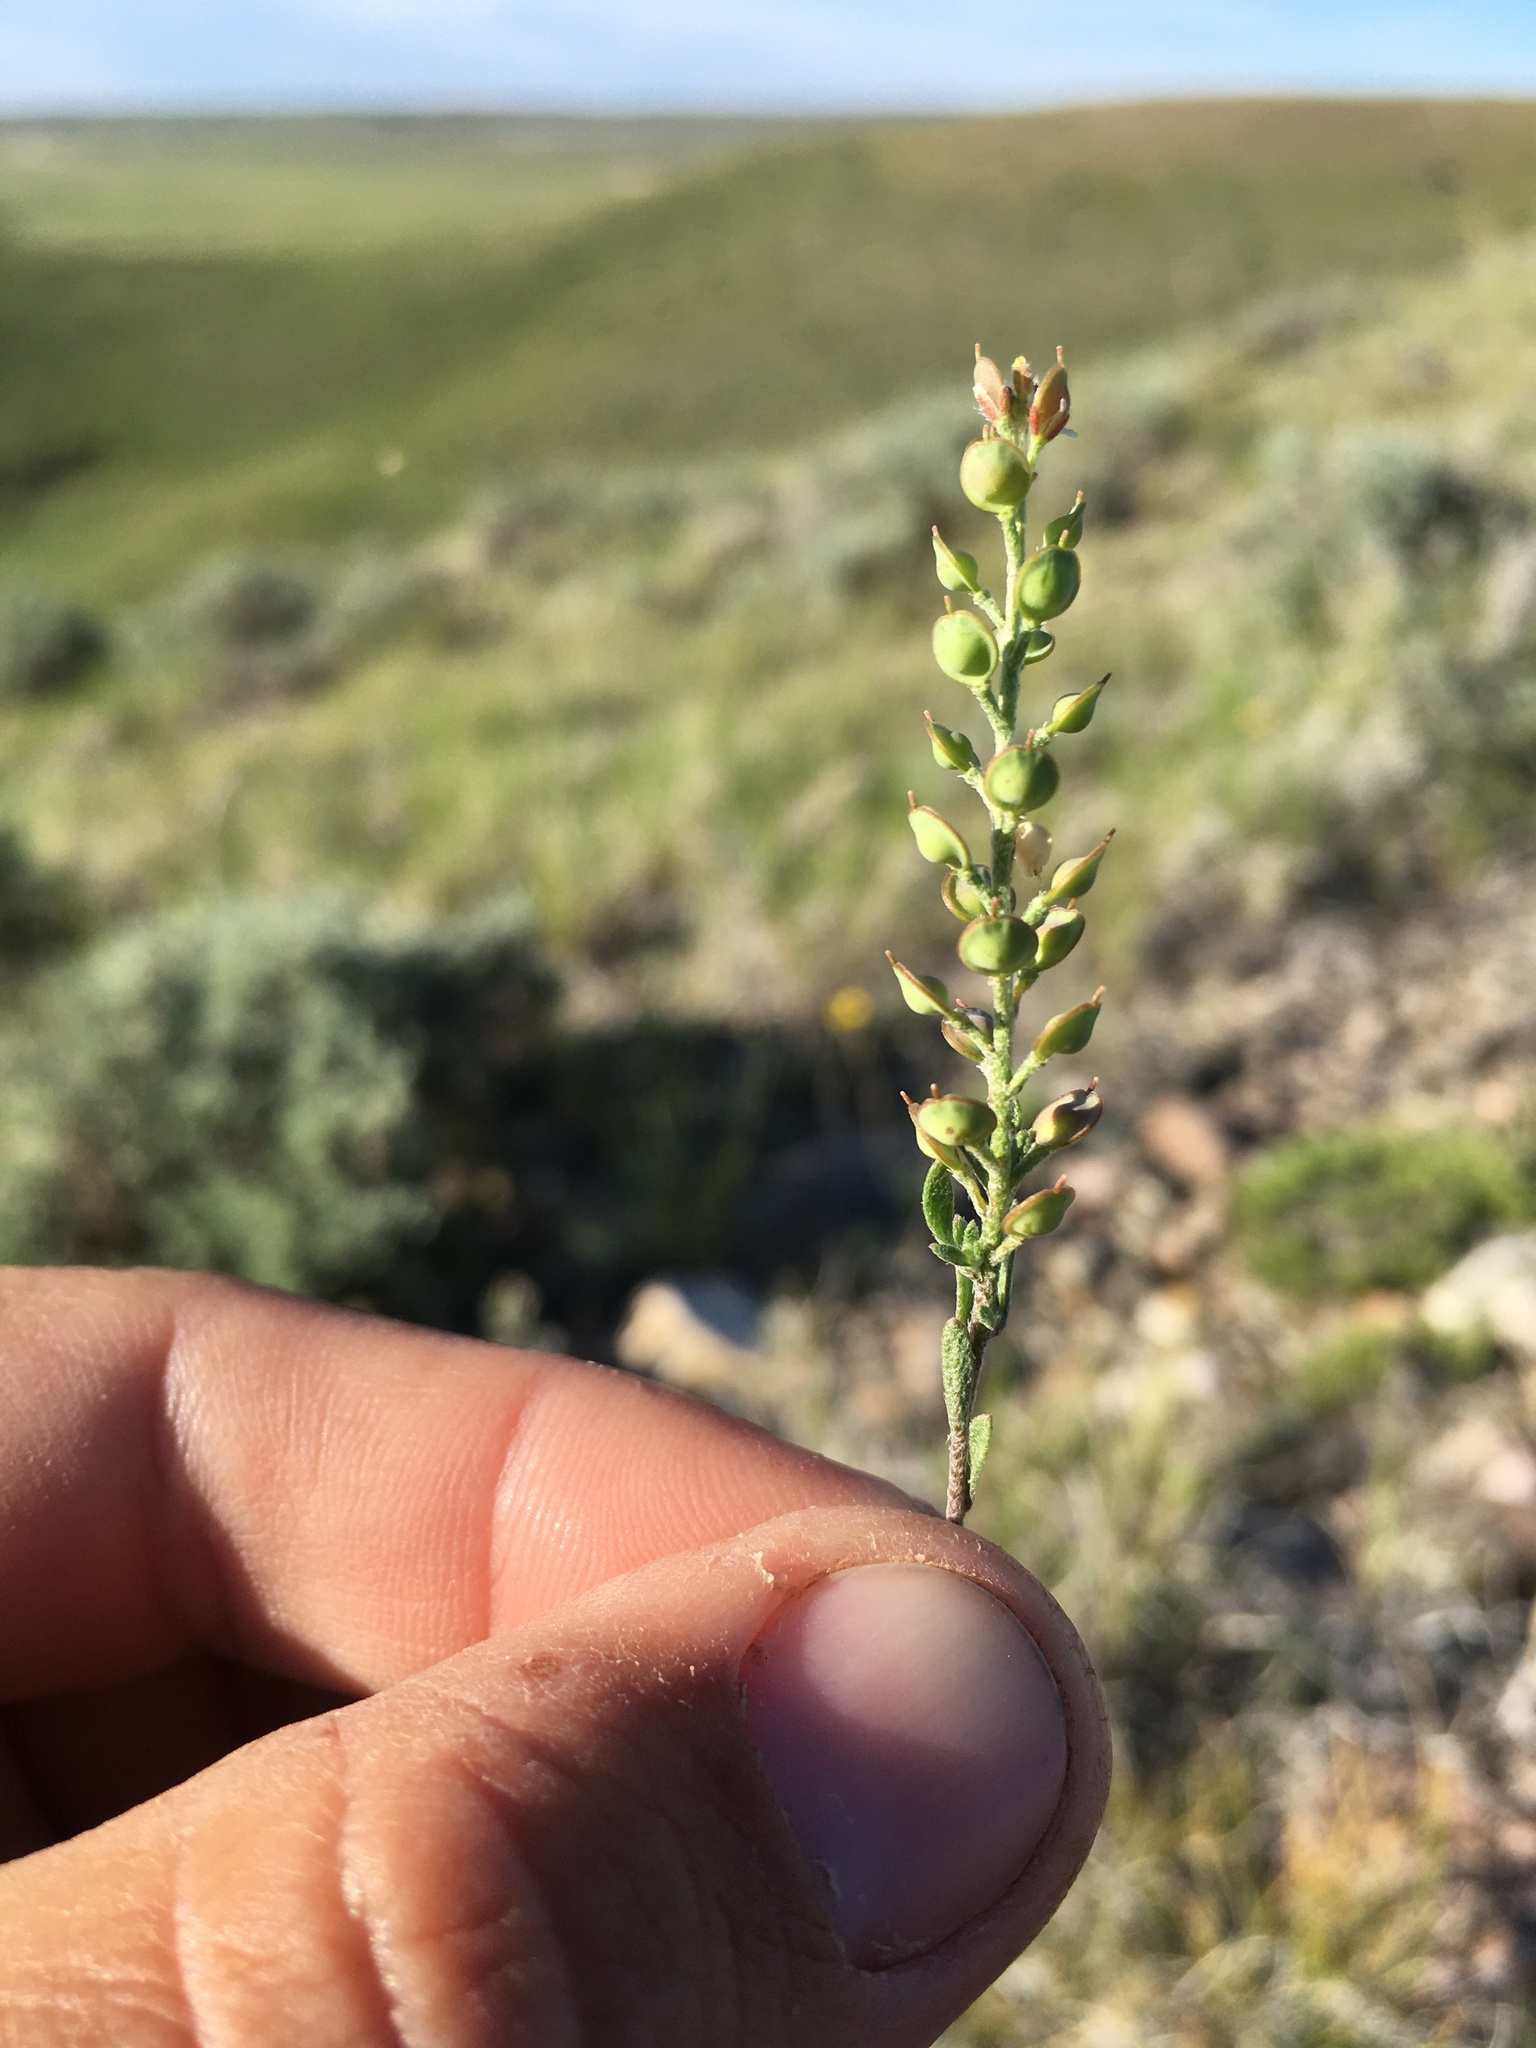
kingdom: Plantae
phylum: Tracheophyta
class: Magnoliopsida
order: Brassicales
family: Brassicaceae
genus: Alyssum
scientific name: Alyssum turkestanicum
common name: Desert alyssum
